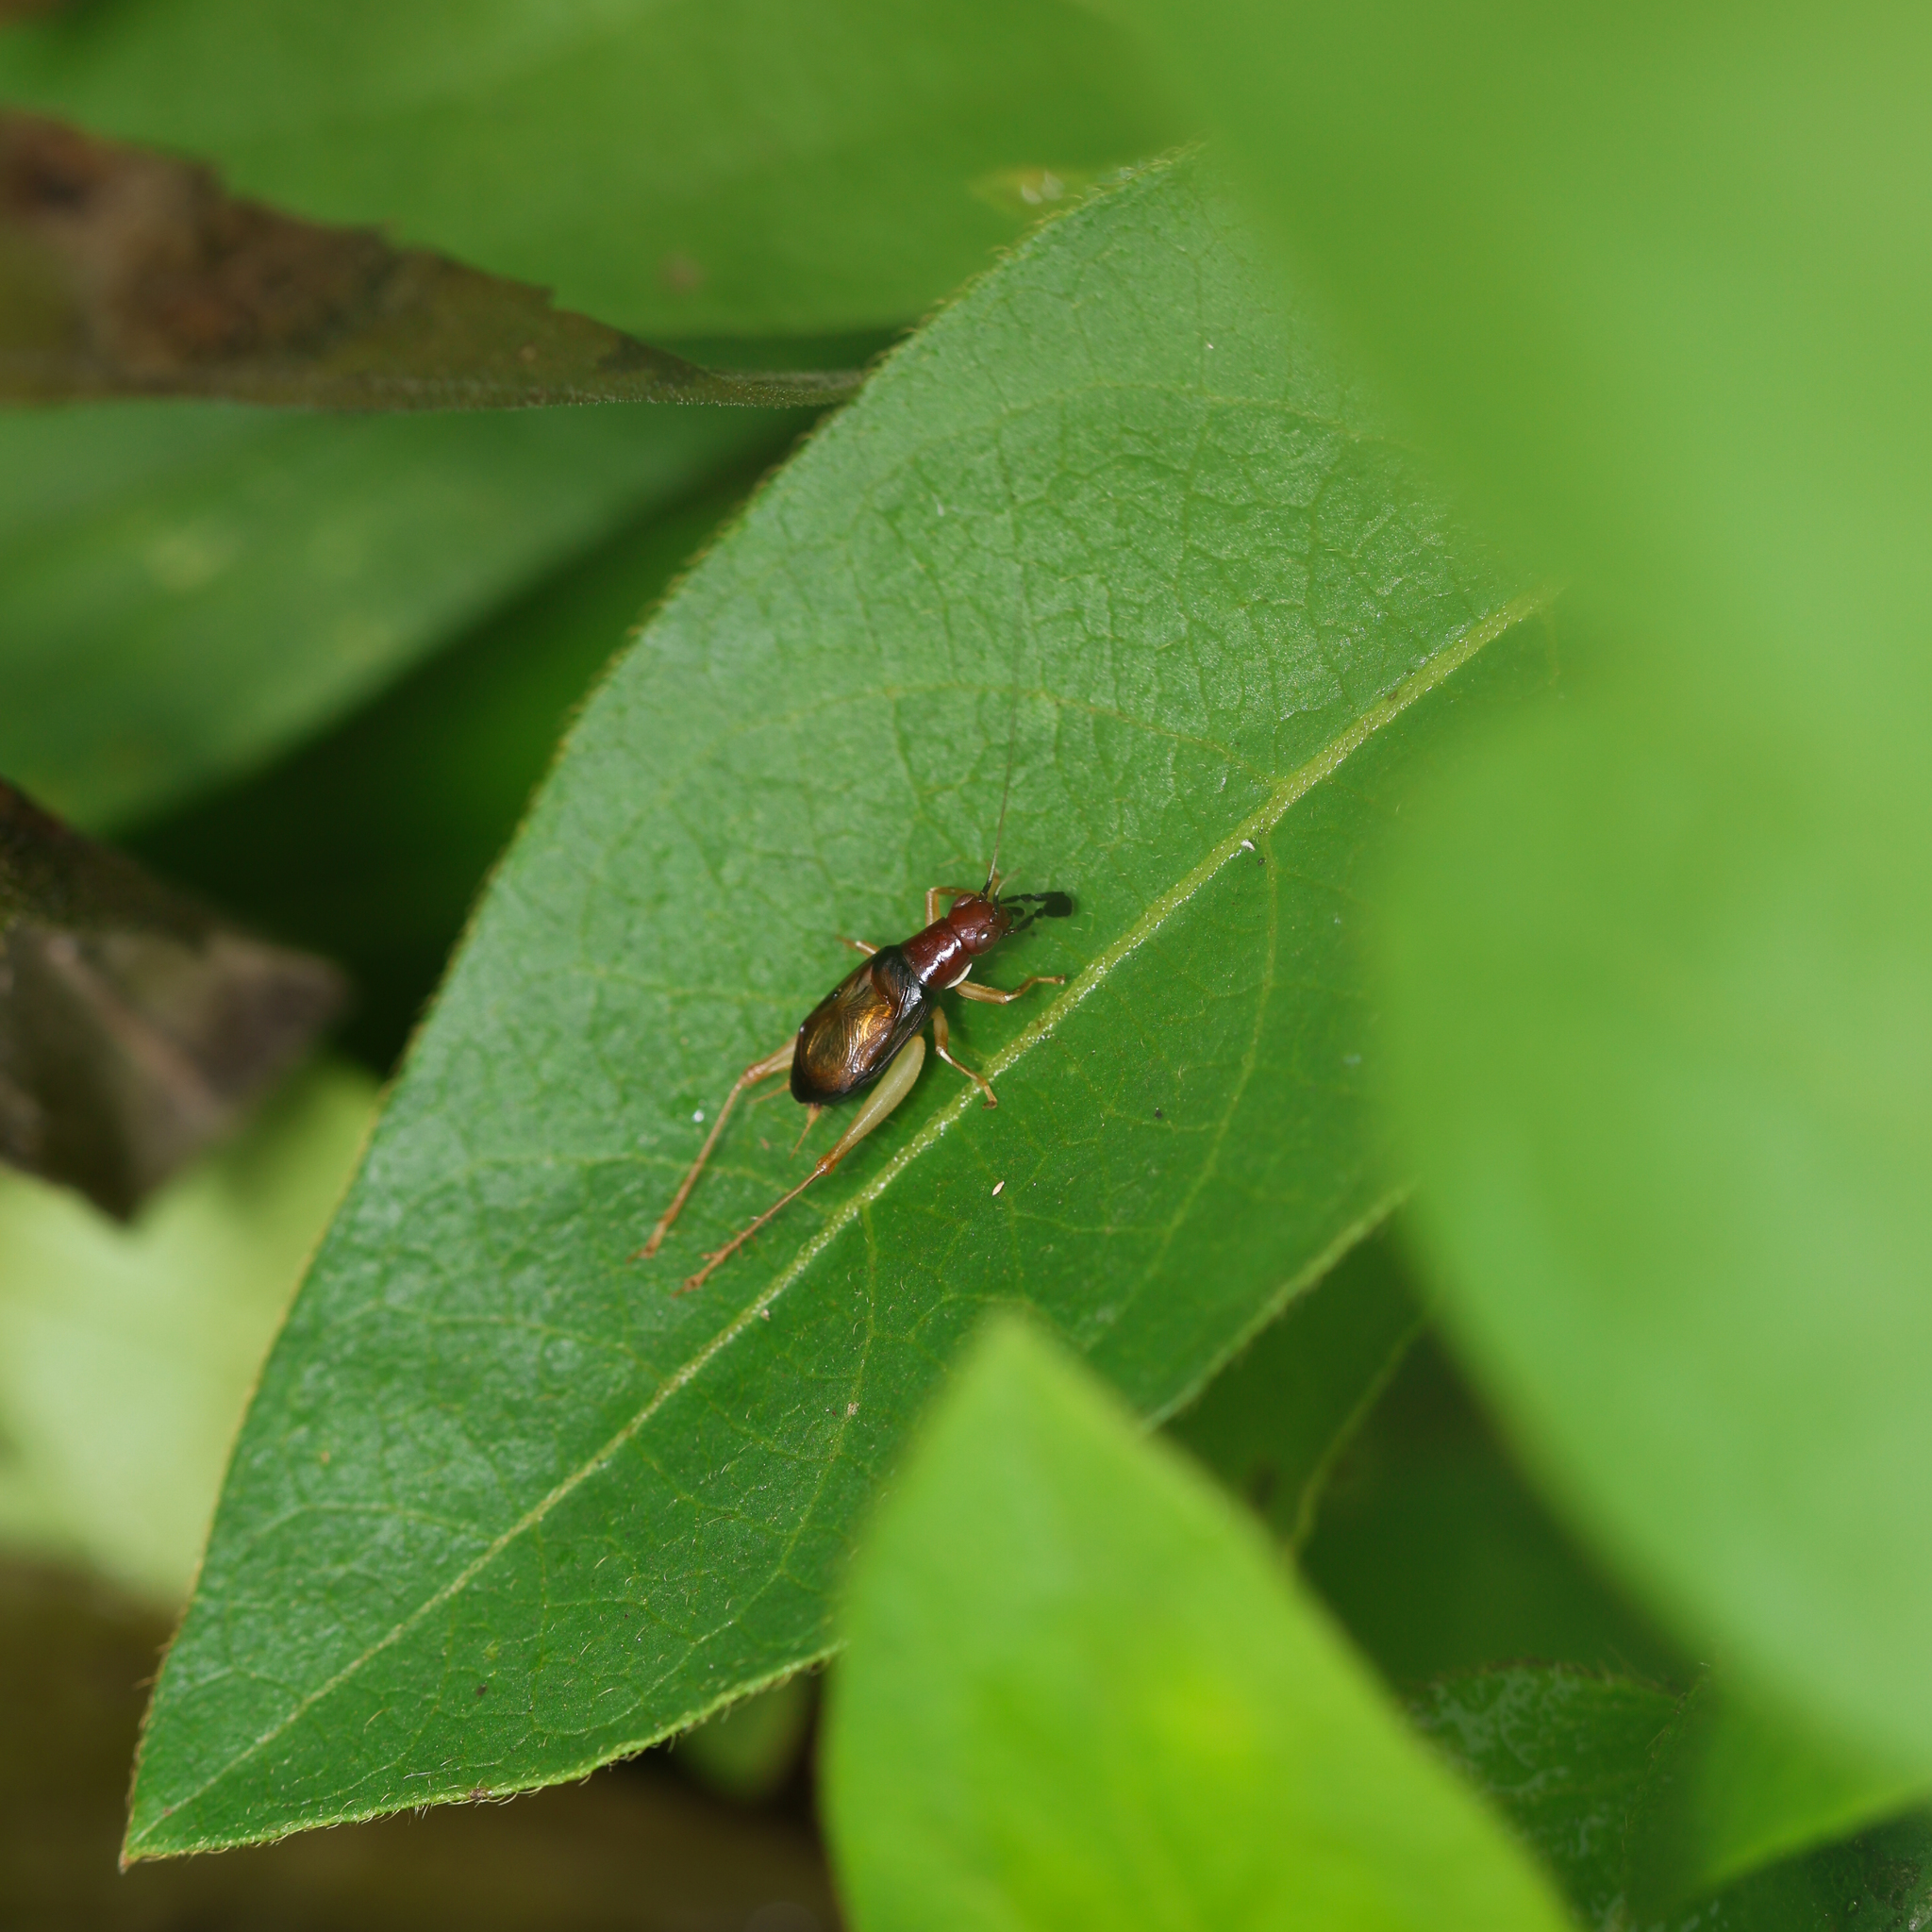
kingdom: Animalia
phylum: Arthropoda
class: Insecta
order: Orthoptera
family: Trigonidiidae
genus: Phyllopalpus
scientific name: Phyllopalpus pulchellus
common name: Handsome trig
